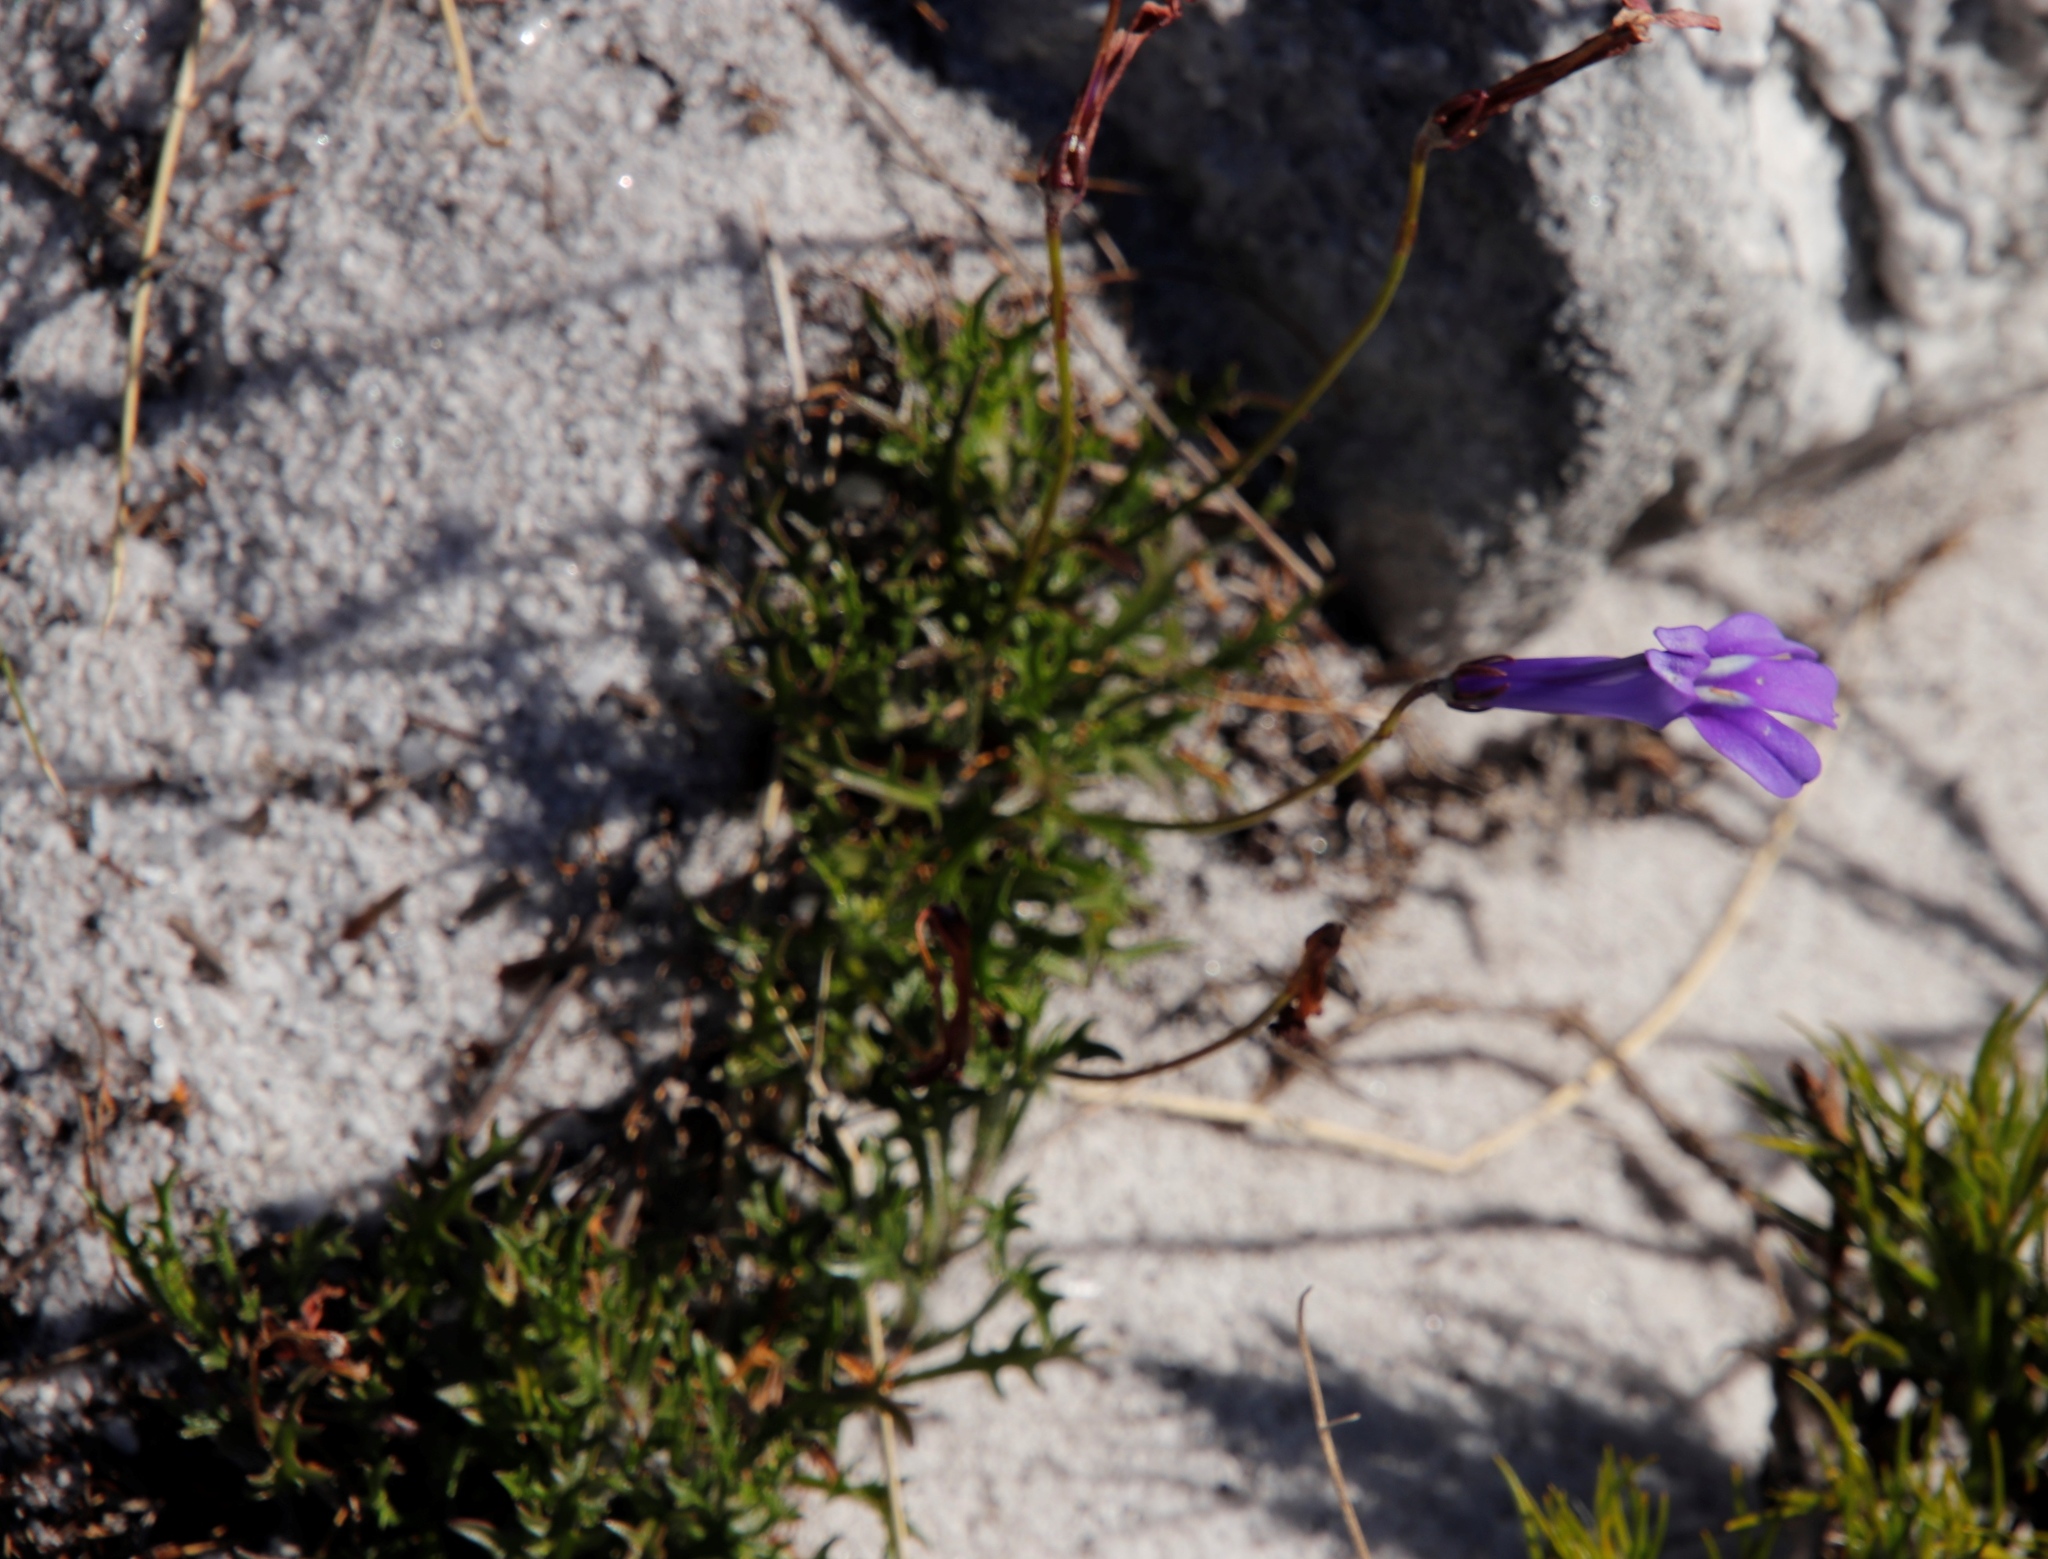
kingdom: Plantae
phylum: Tracheophyta
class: Magnoliopsida
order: Asterales
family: Campanulaceae
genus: Lobelia
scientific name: Lobelia coronopifolia
